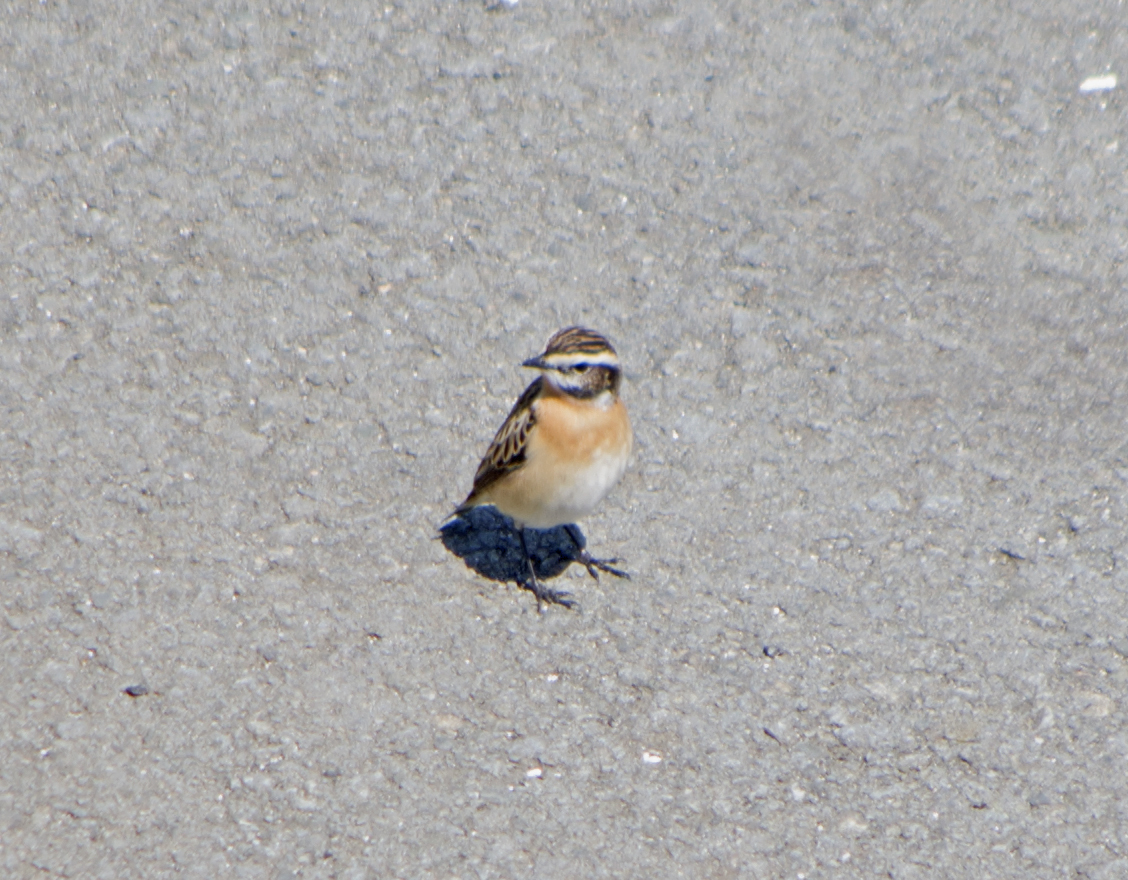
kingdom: Animalia
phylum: Chordata
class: Aves
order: Passeriformes
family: Muscicapidae
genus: Saxicola
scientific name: Saxicola rubetra
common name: Whinchat
